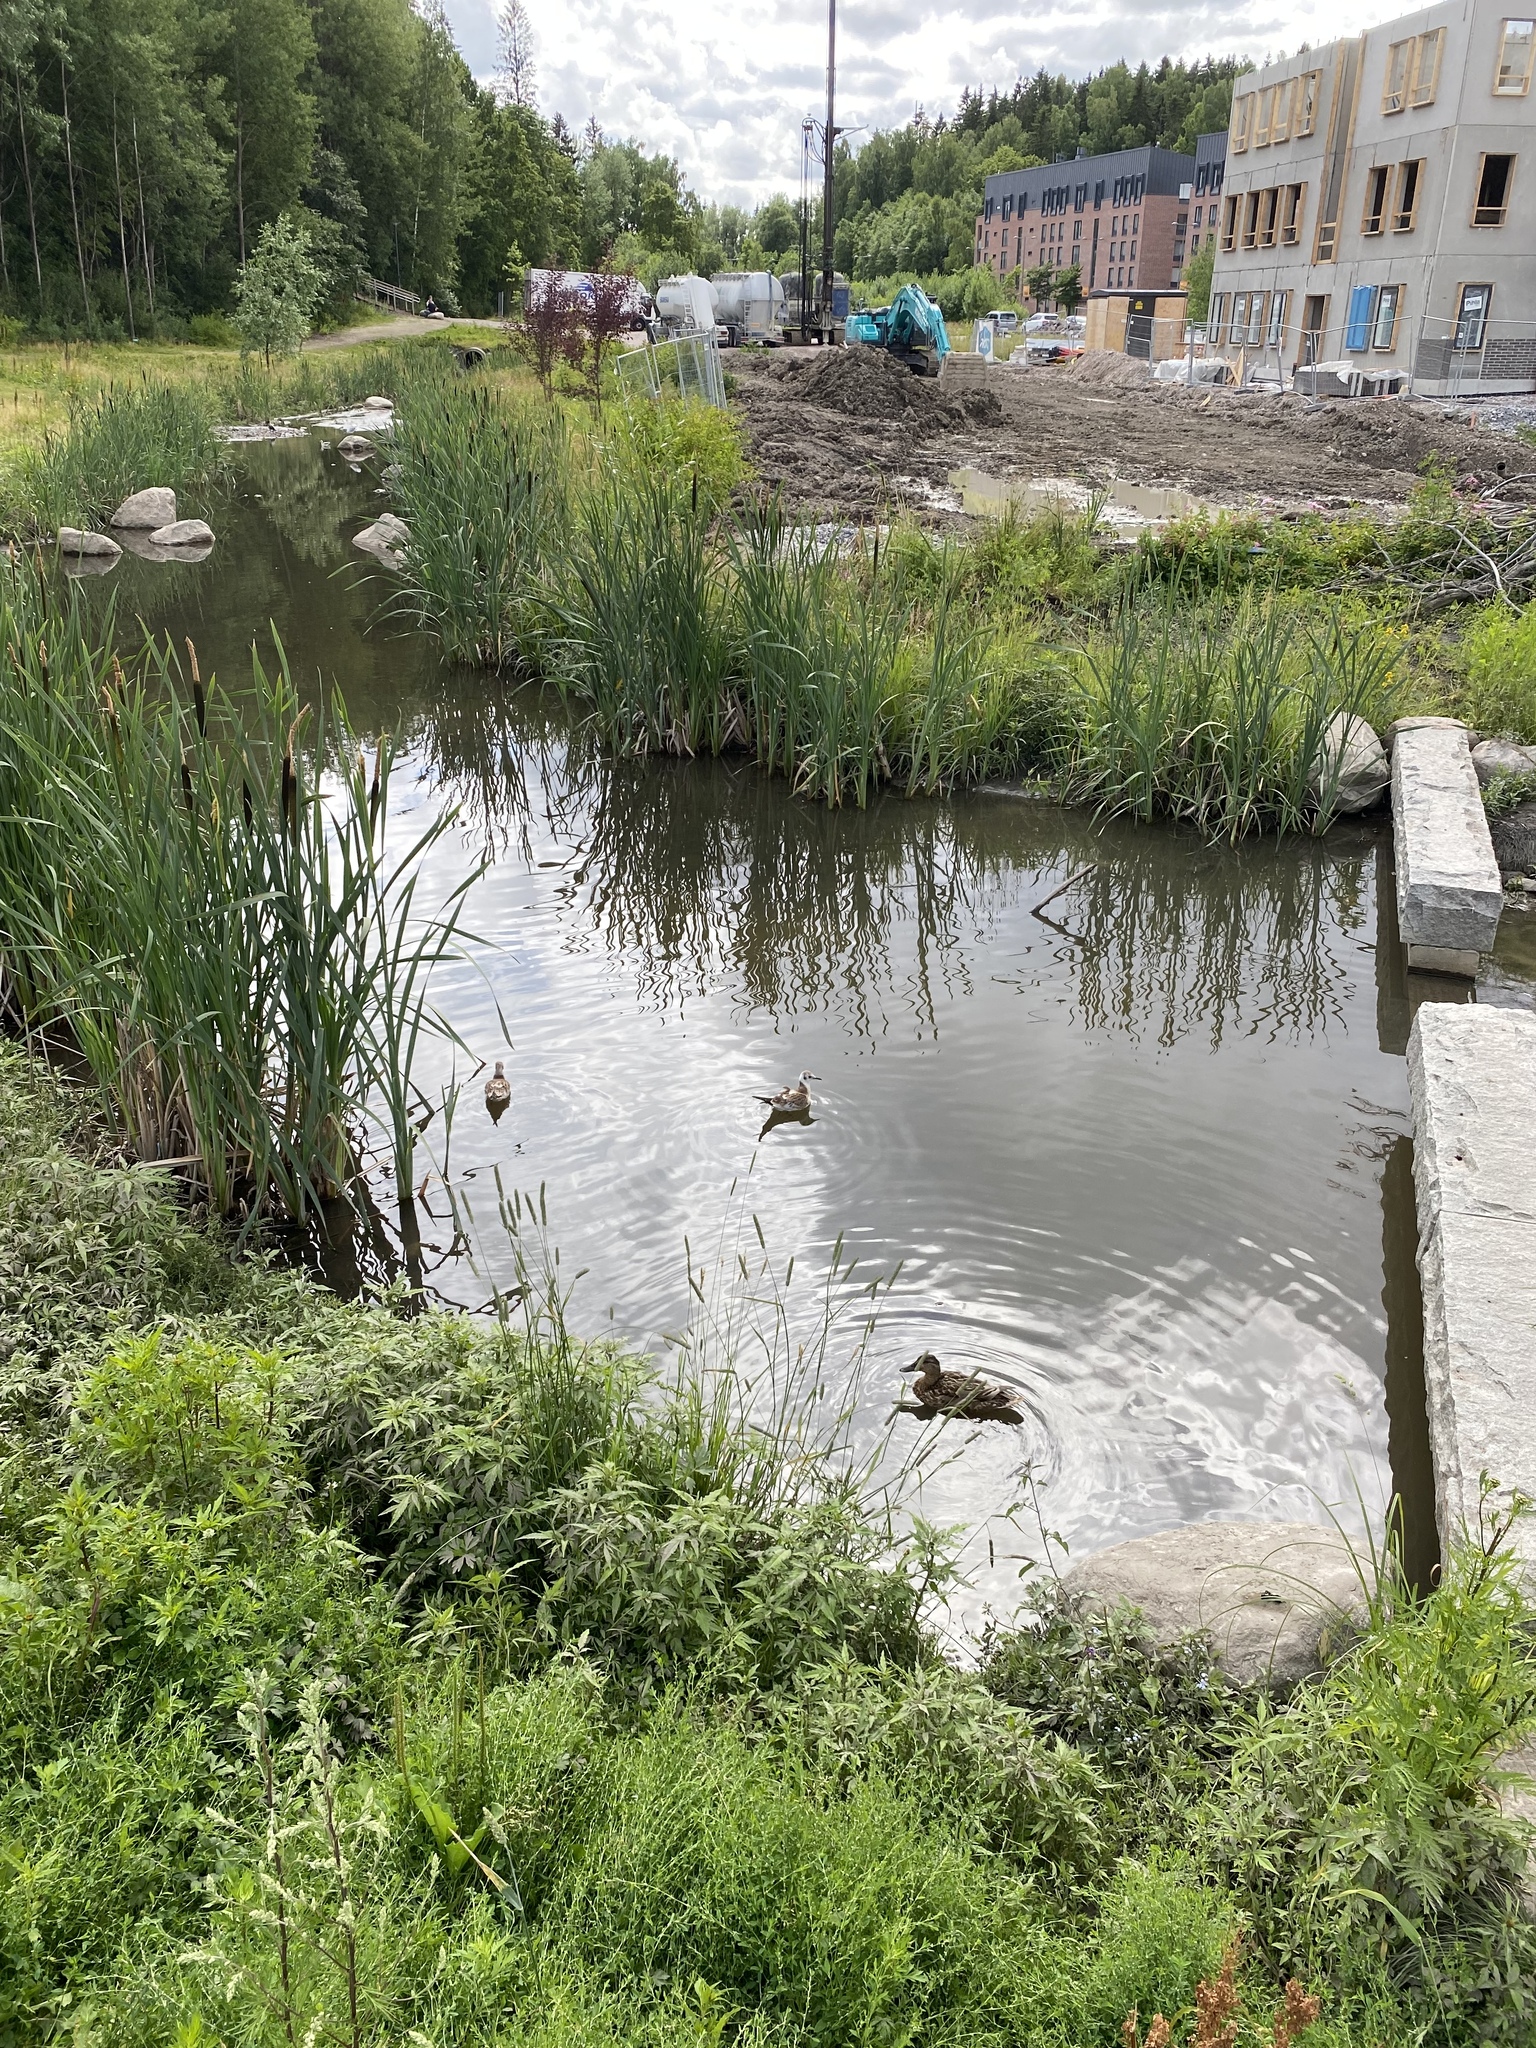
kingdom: Animalia
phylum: Chordata
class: Aves
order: Charadriiformes
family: Laridae
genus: Chroicocephalus
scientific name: Chroicocephalus ridibundus
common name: Black-headed gull
